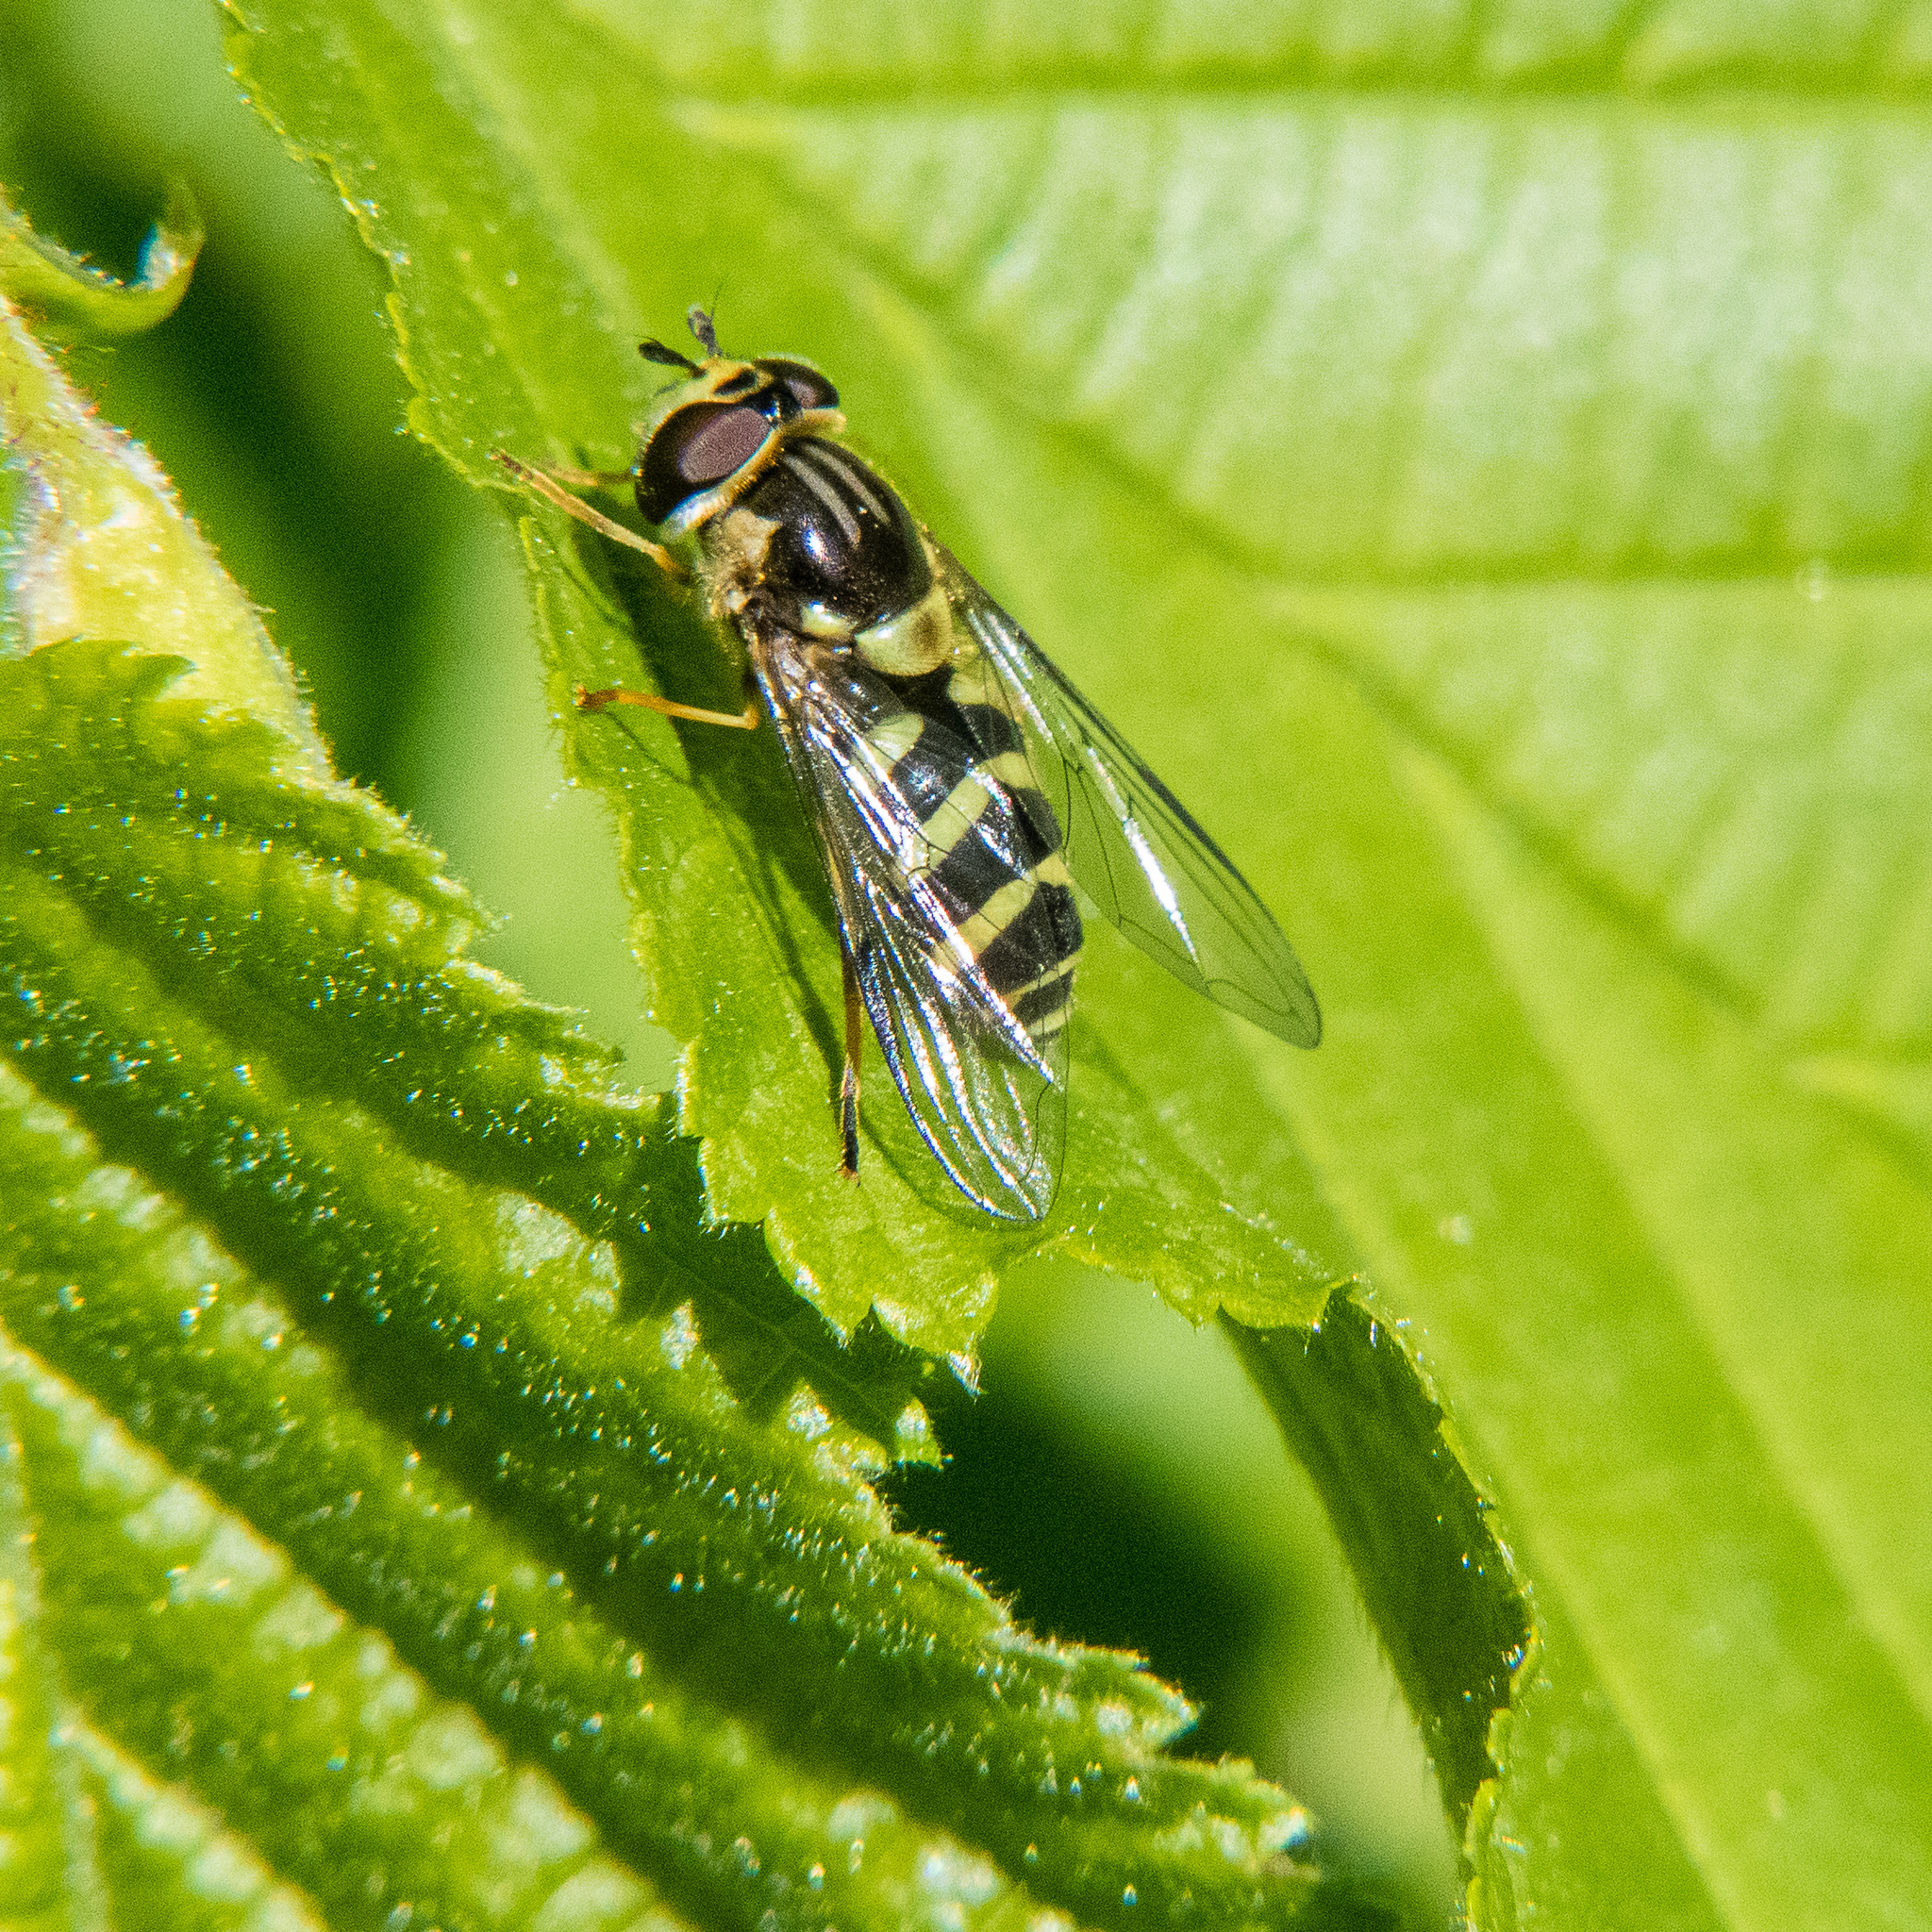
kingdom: Animalia
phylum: Arthropoda
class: Insecta
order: Diptera
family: Syrphidae
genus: Dasysyrphus
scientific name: Dasysyrphus albostriatus
